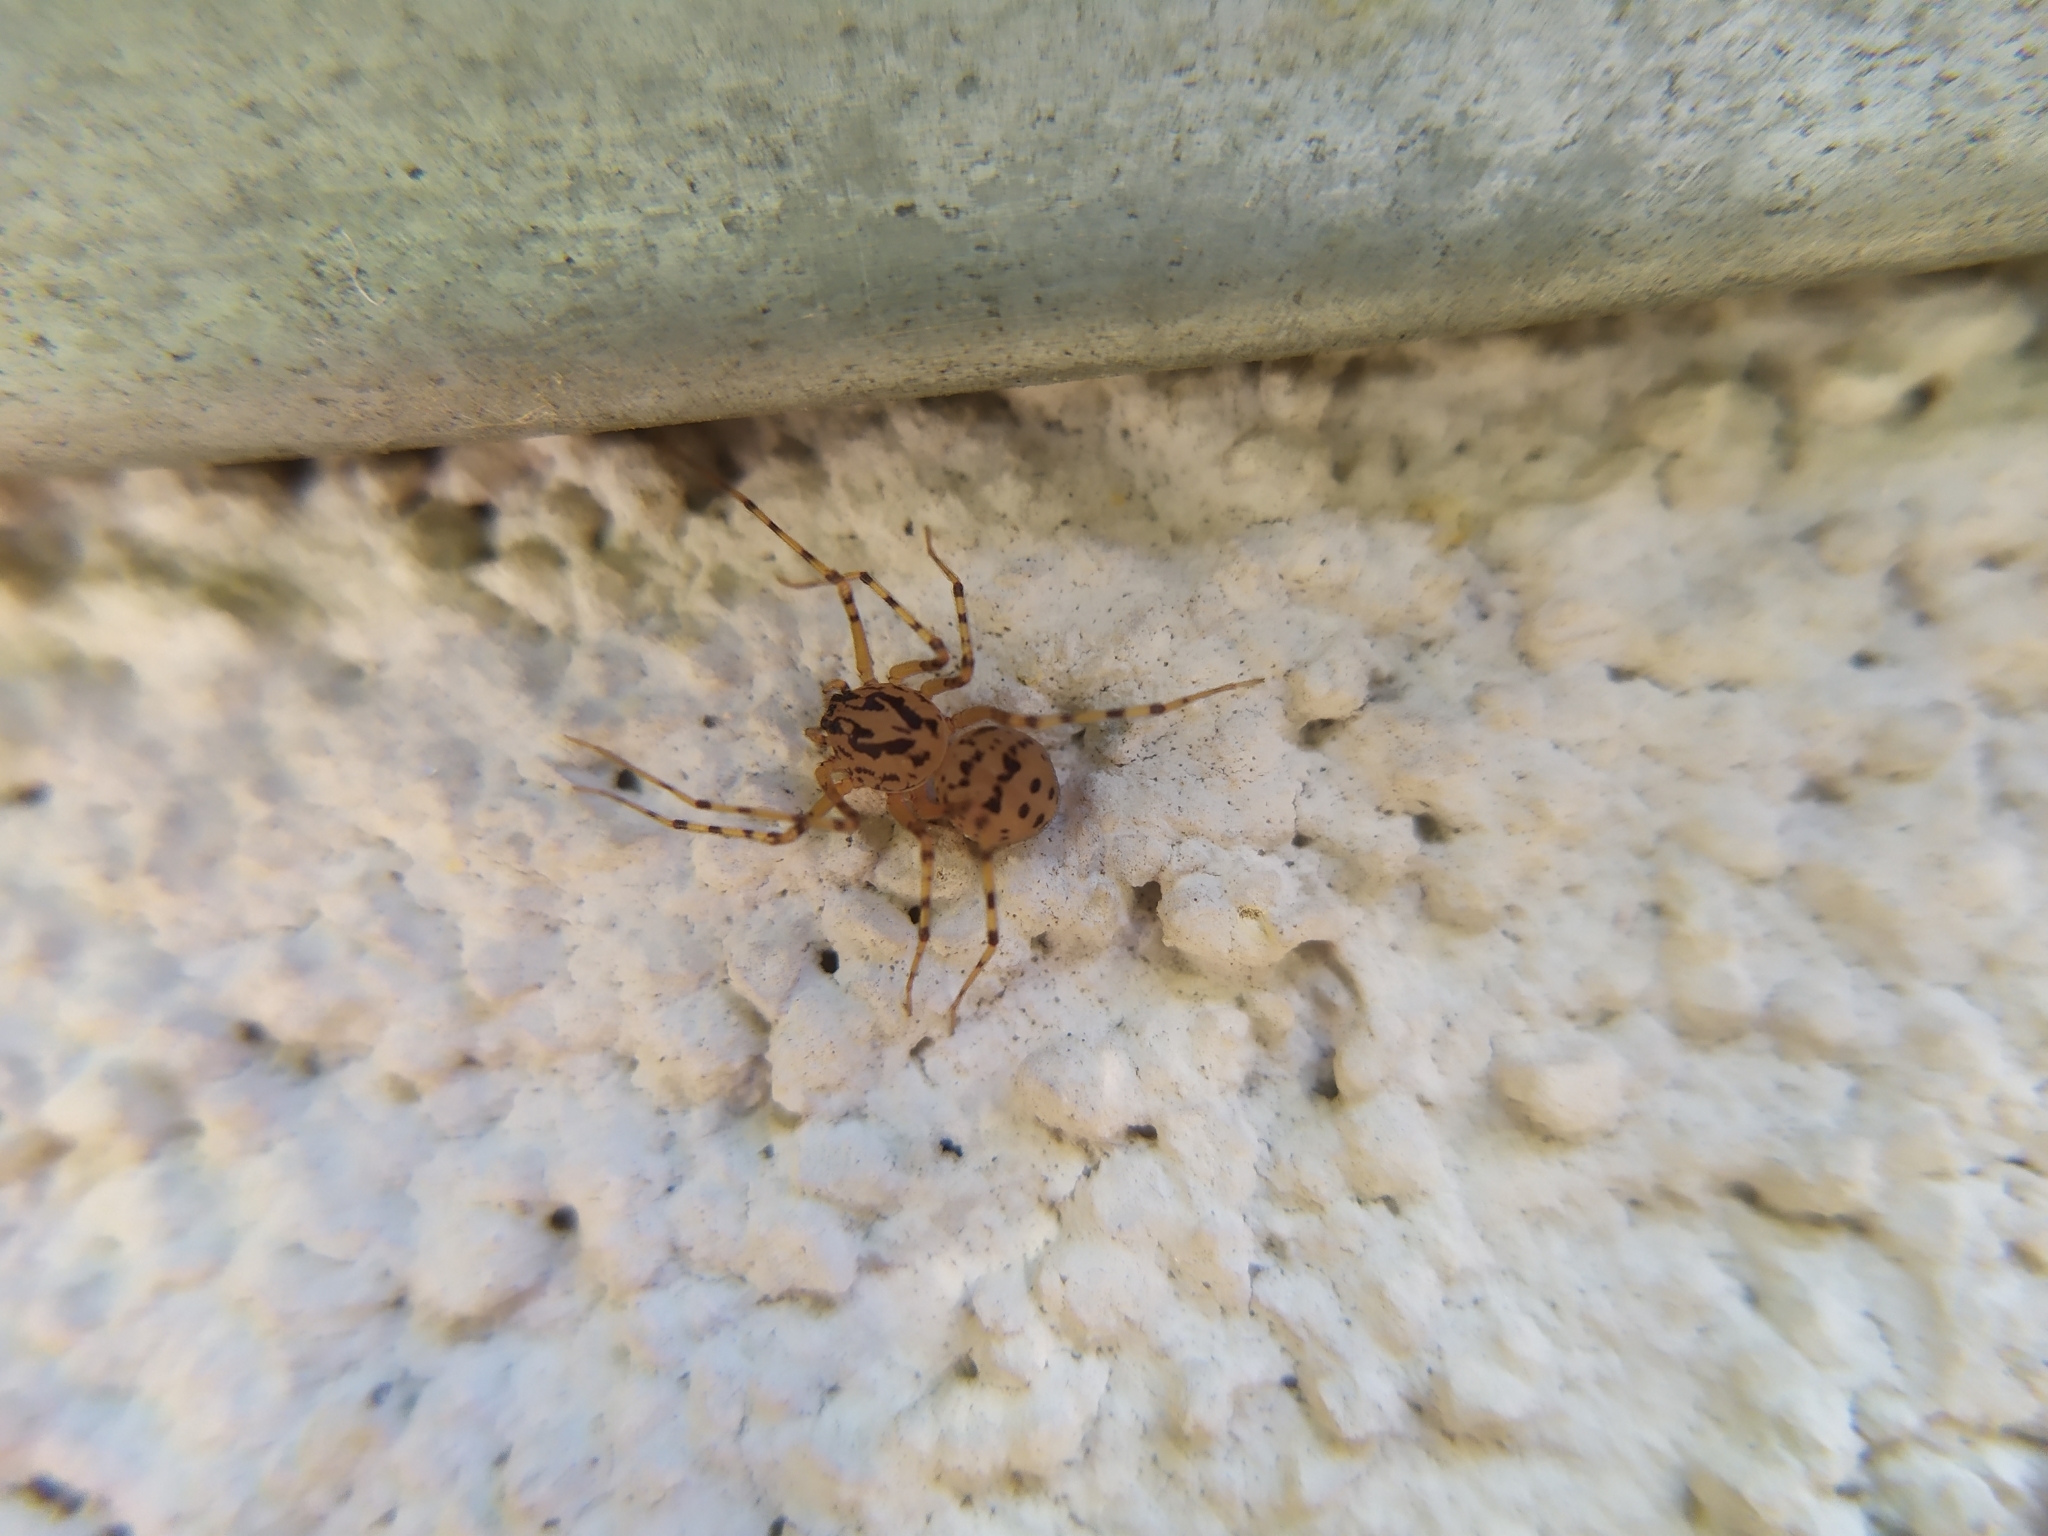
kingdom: Animalia
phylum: Arthropoda
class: Arachnida
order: Araneae
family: Scytodidae
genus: Scytodes
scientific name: Scytodes thoracica
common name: Spitting spider
